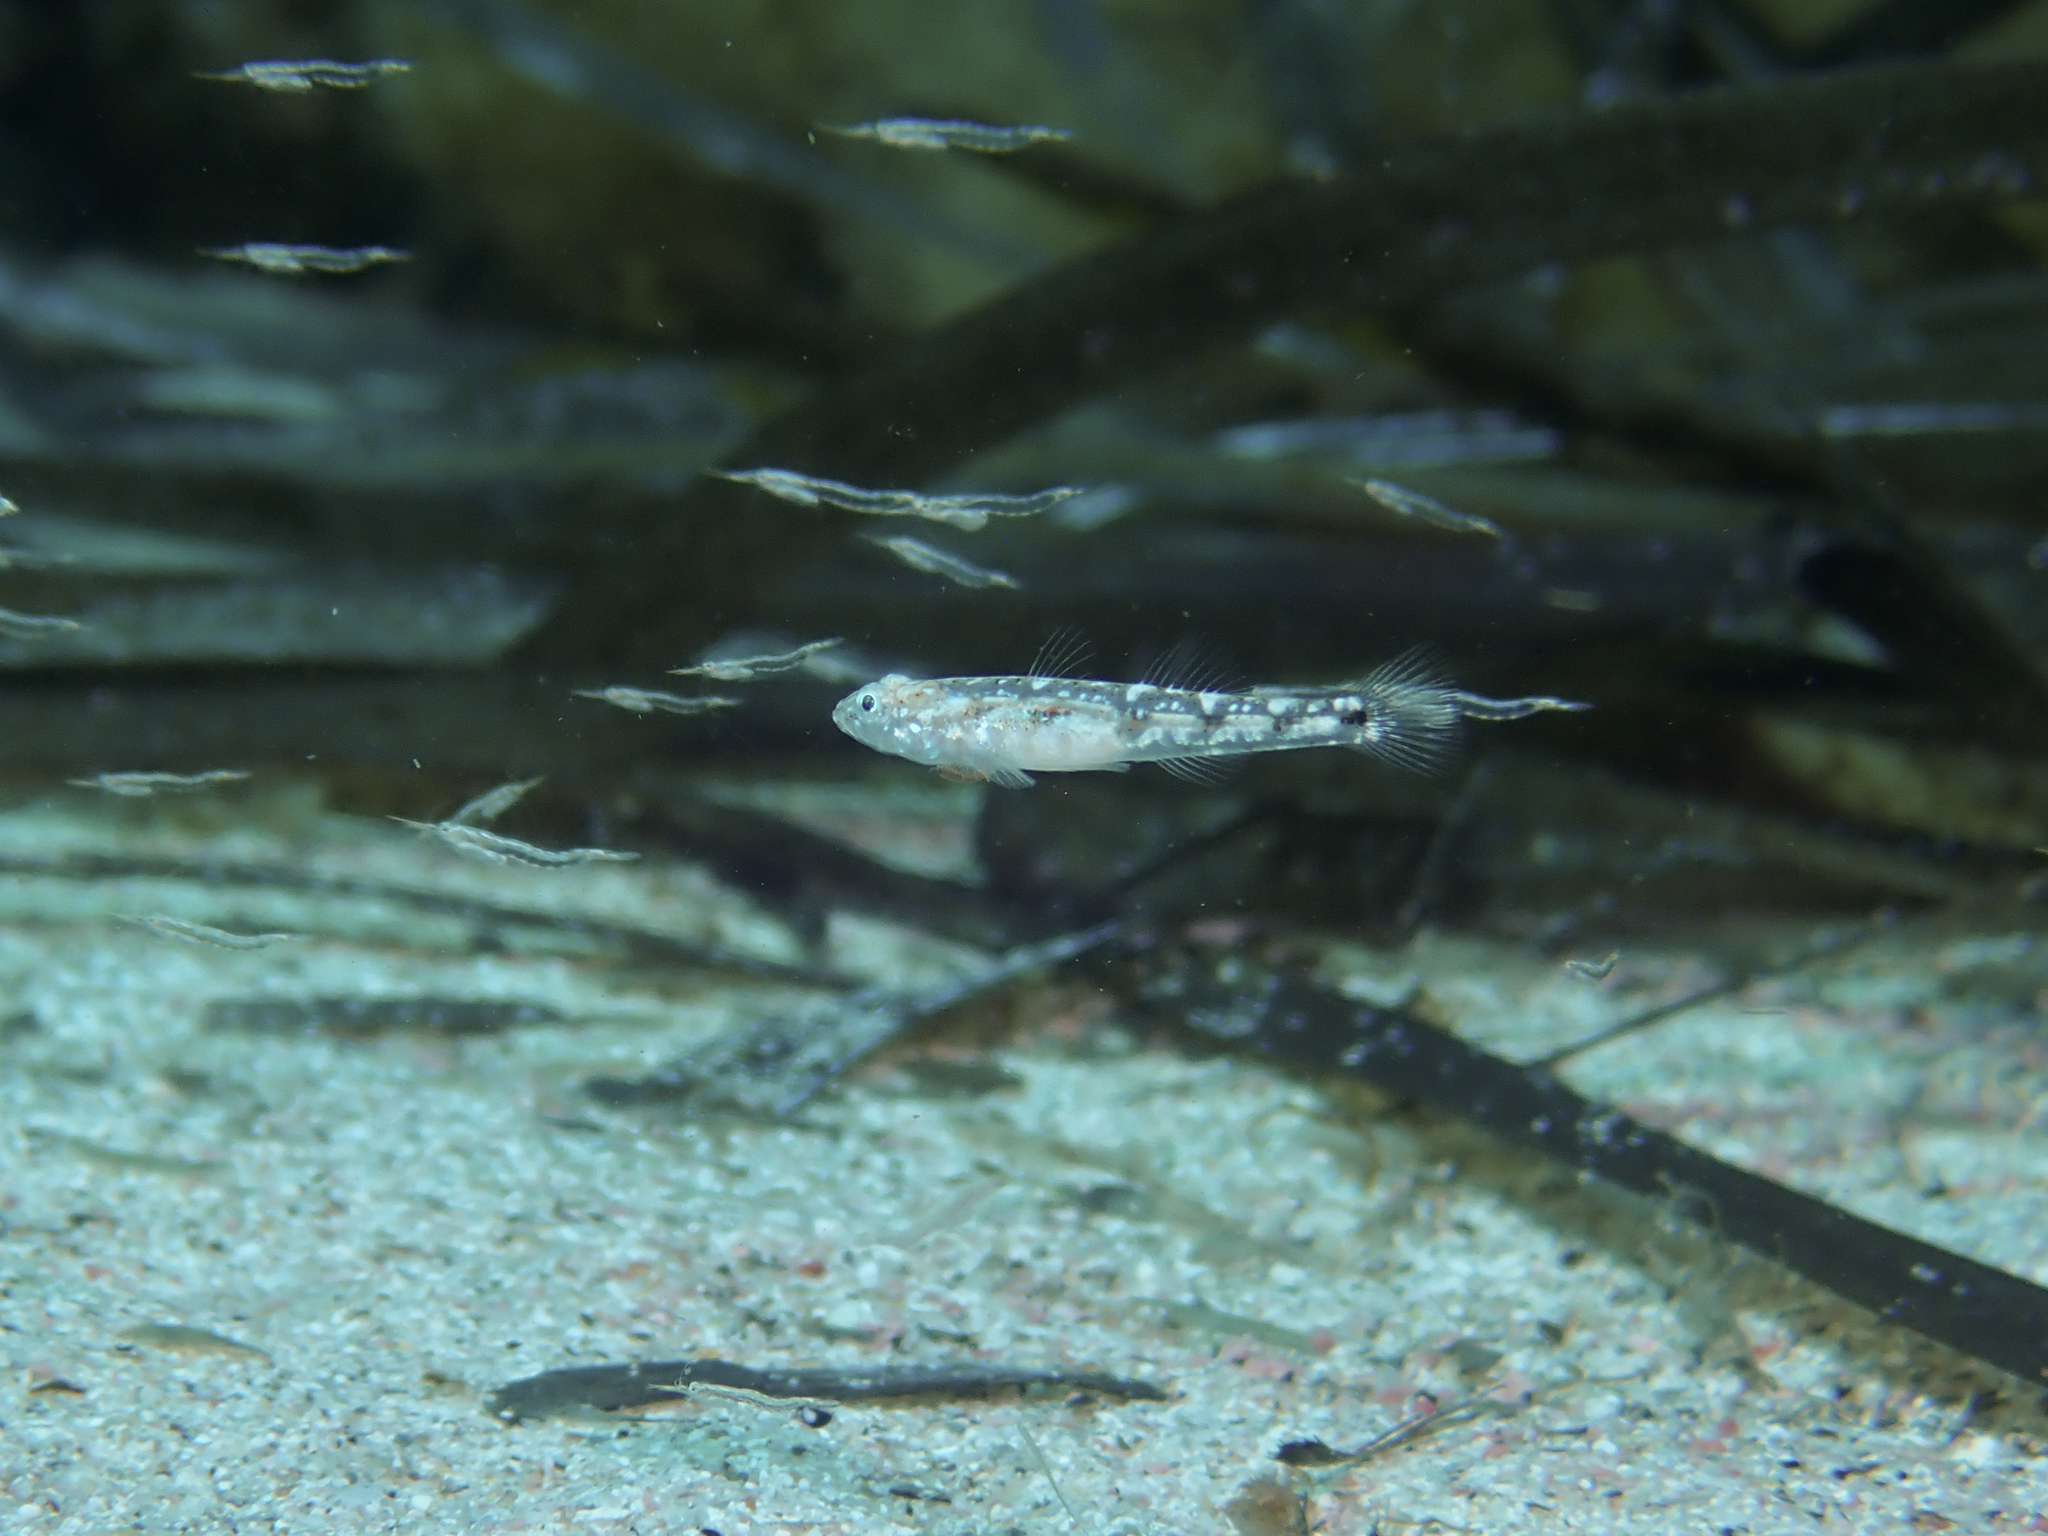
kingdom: Animalia
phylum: Chordata
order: Perciformes
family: Gobiidae
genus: Pomatoschistus
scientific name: Pomatoschistus marmoratus
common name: Marbled goby
